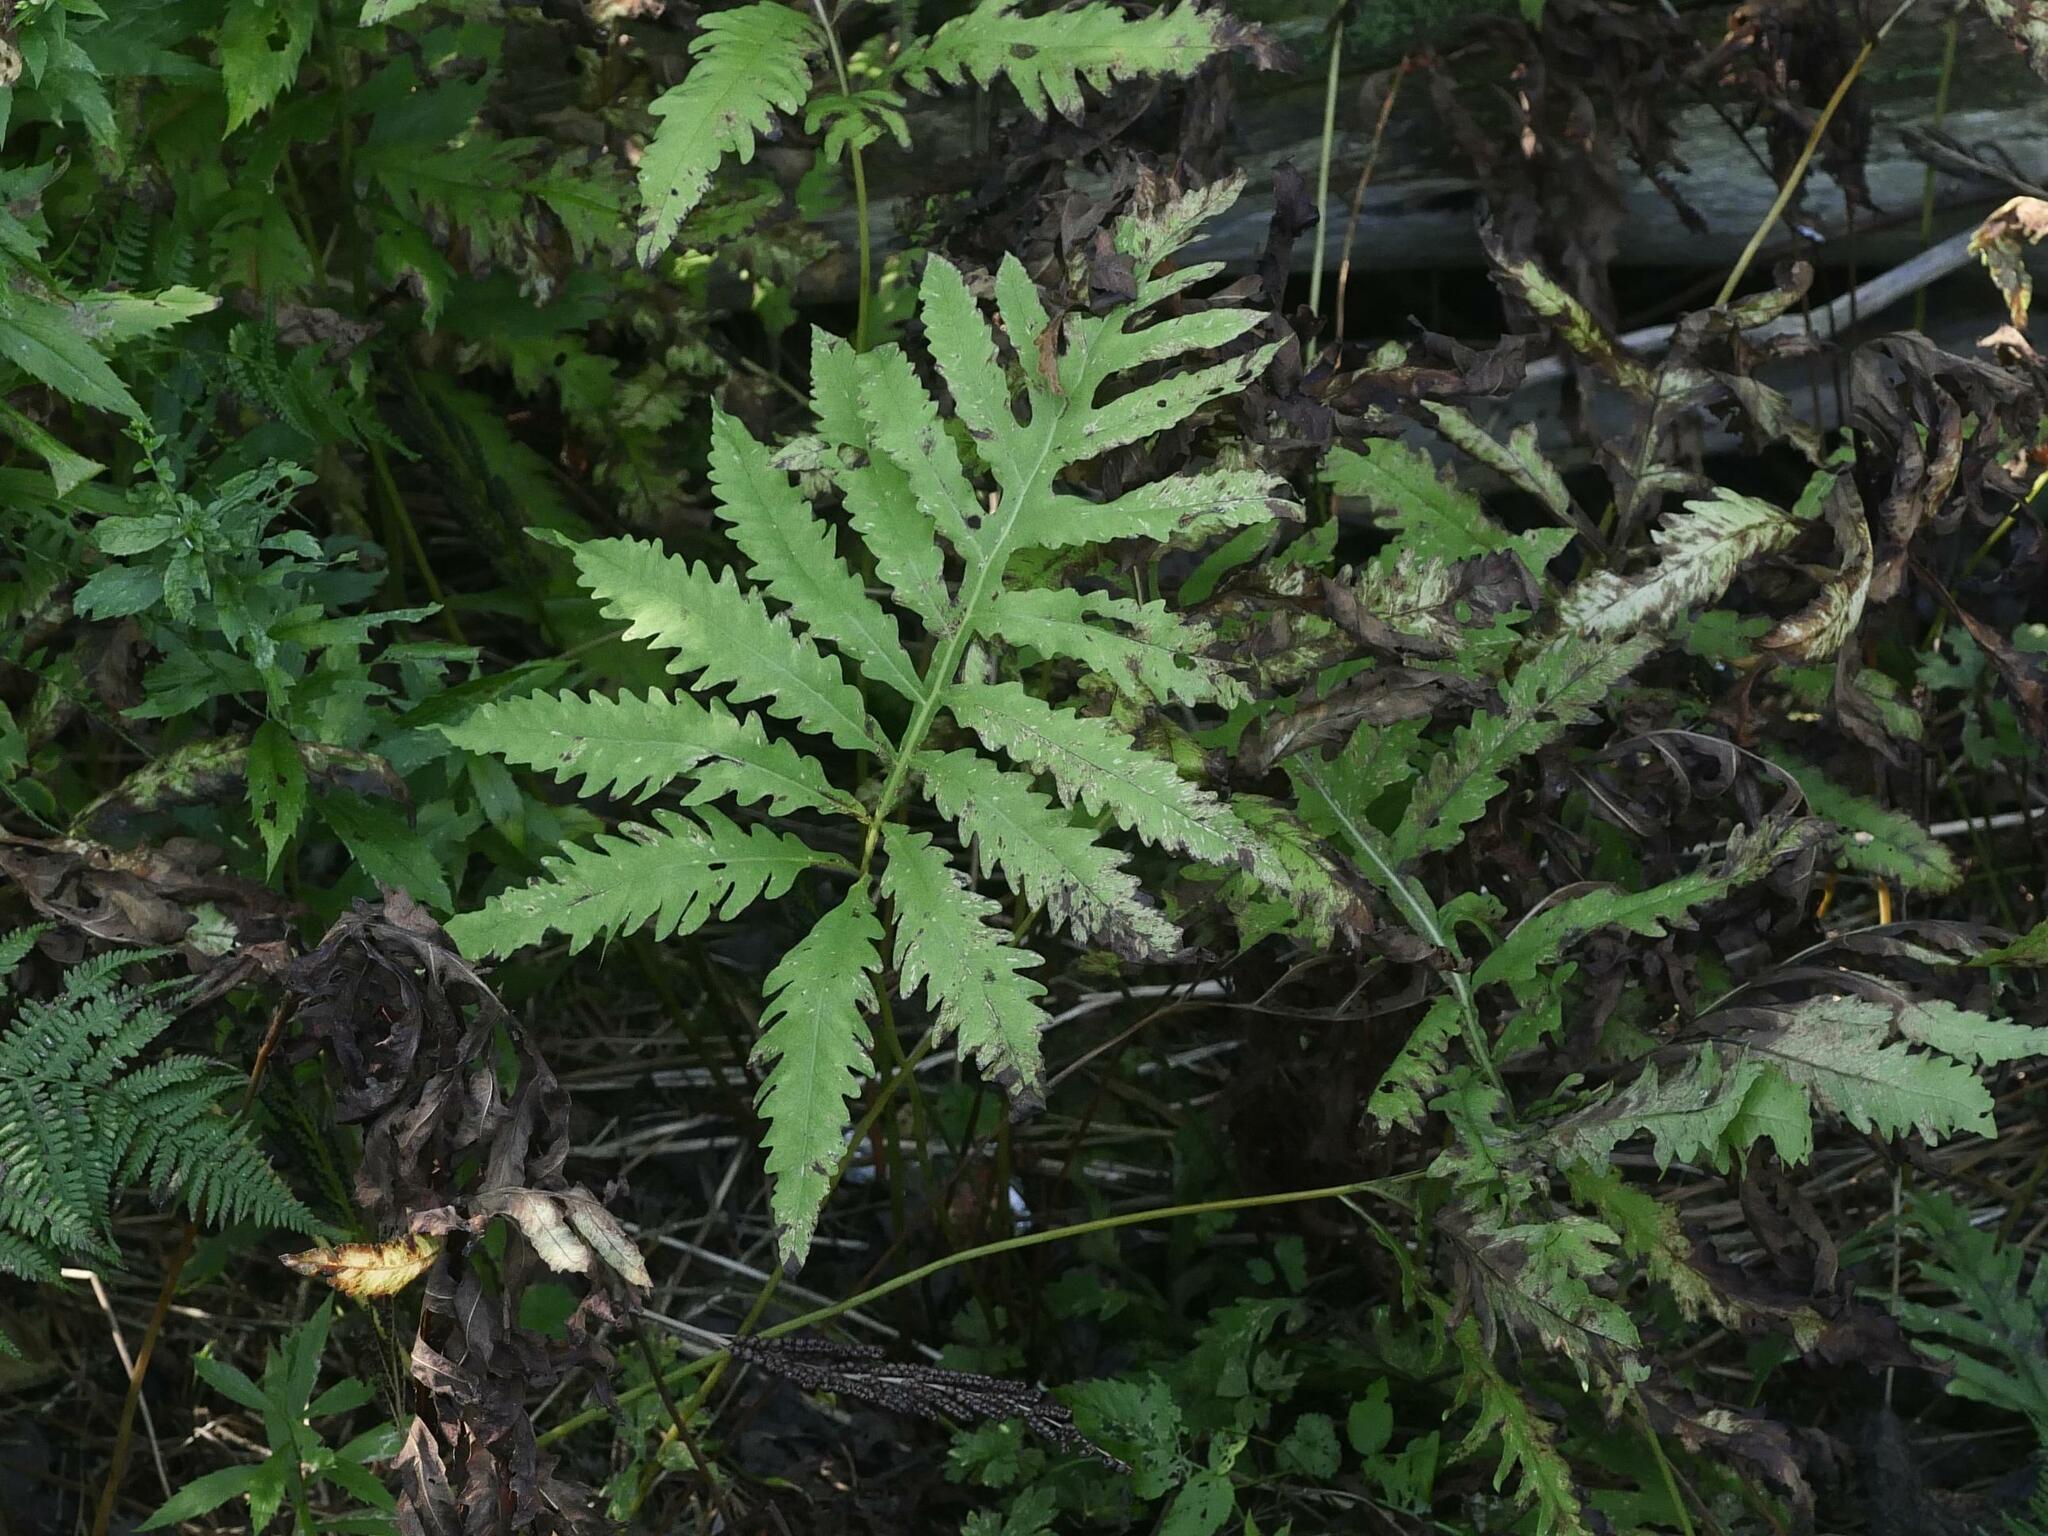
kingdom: Plantae
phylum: Tracheophyta
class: Polypodiopsida
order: Polypodiales
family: Onocleaceae
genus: Onoclea
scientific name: Onoclea sensibilis
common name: Sensitive fern
